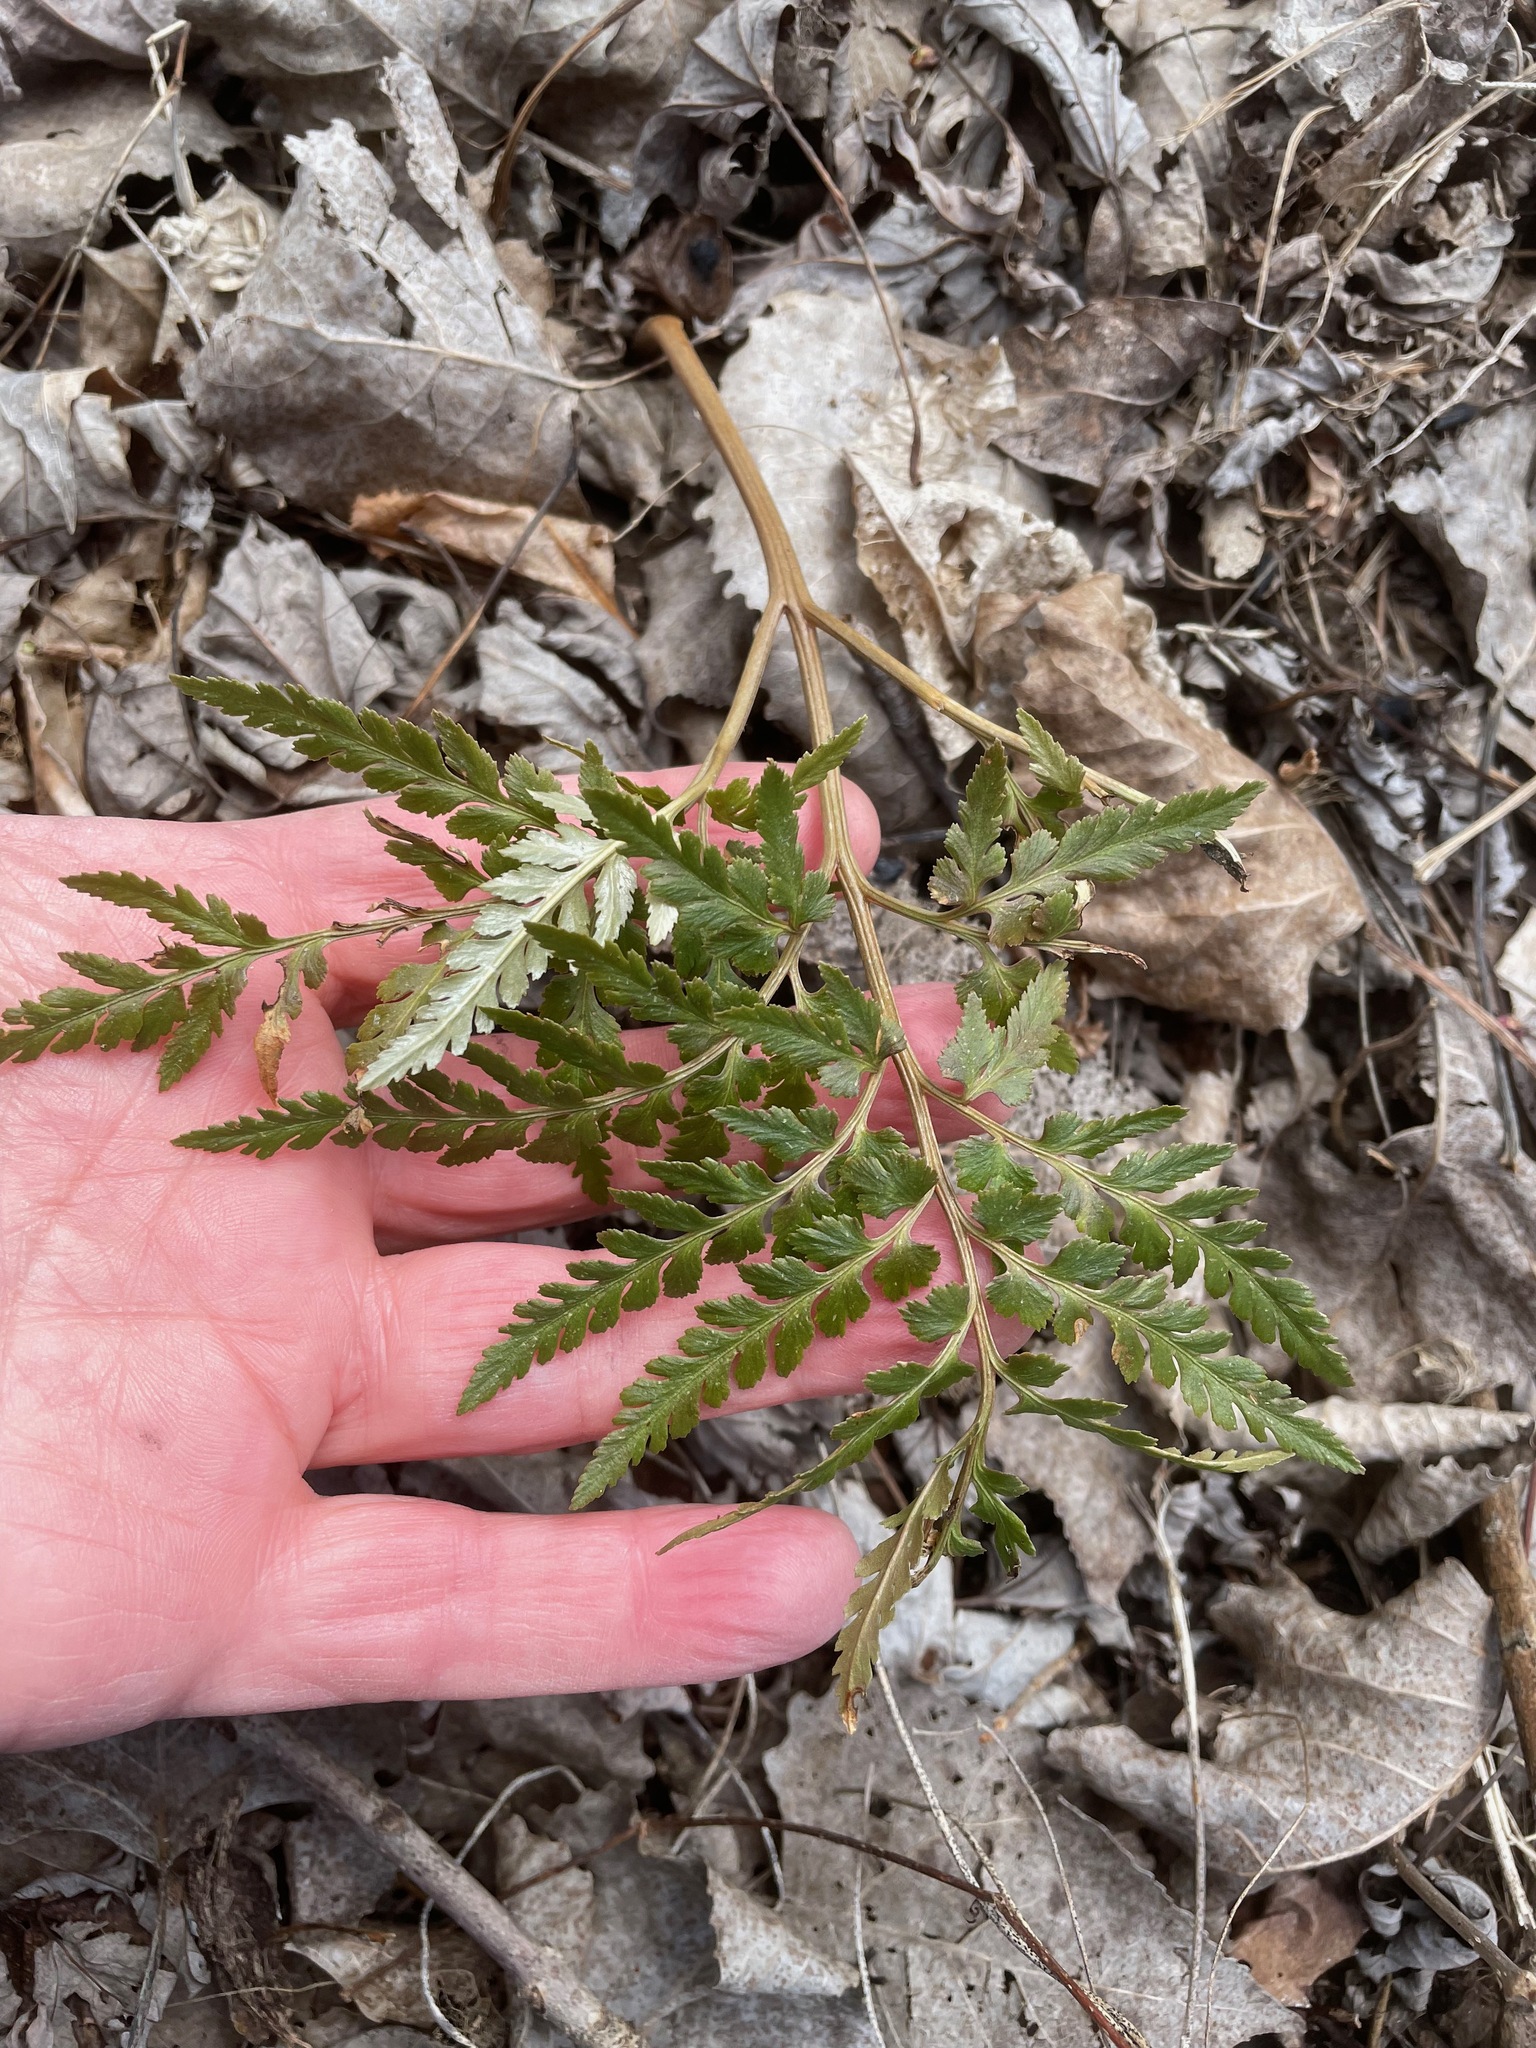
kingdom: Plantae
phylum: Tracheophyta
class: Polypodiopsida
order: Ophioglossales
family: Ophioglossaceae
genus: Sceptridium
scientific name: Sceptridium dissectum
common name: Cut-leaved grapefern
